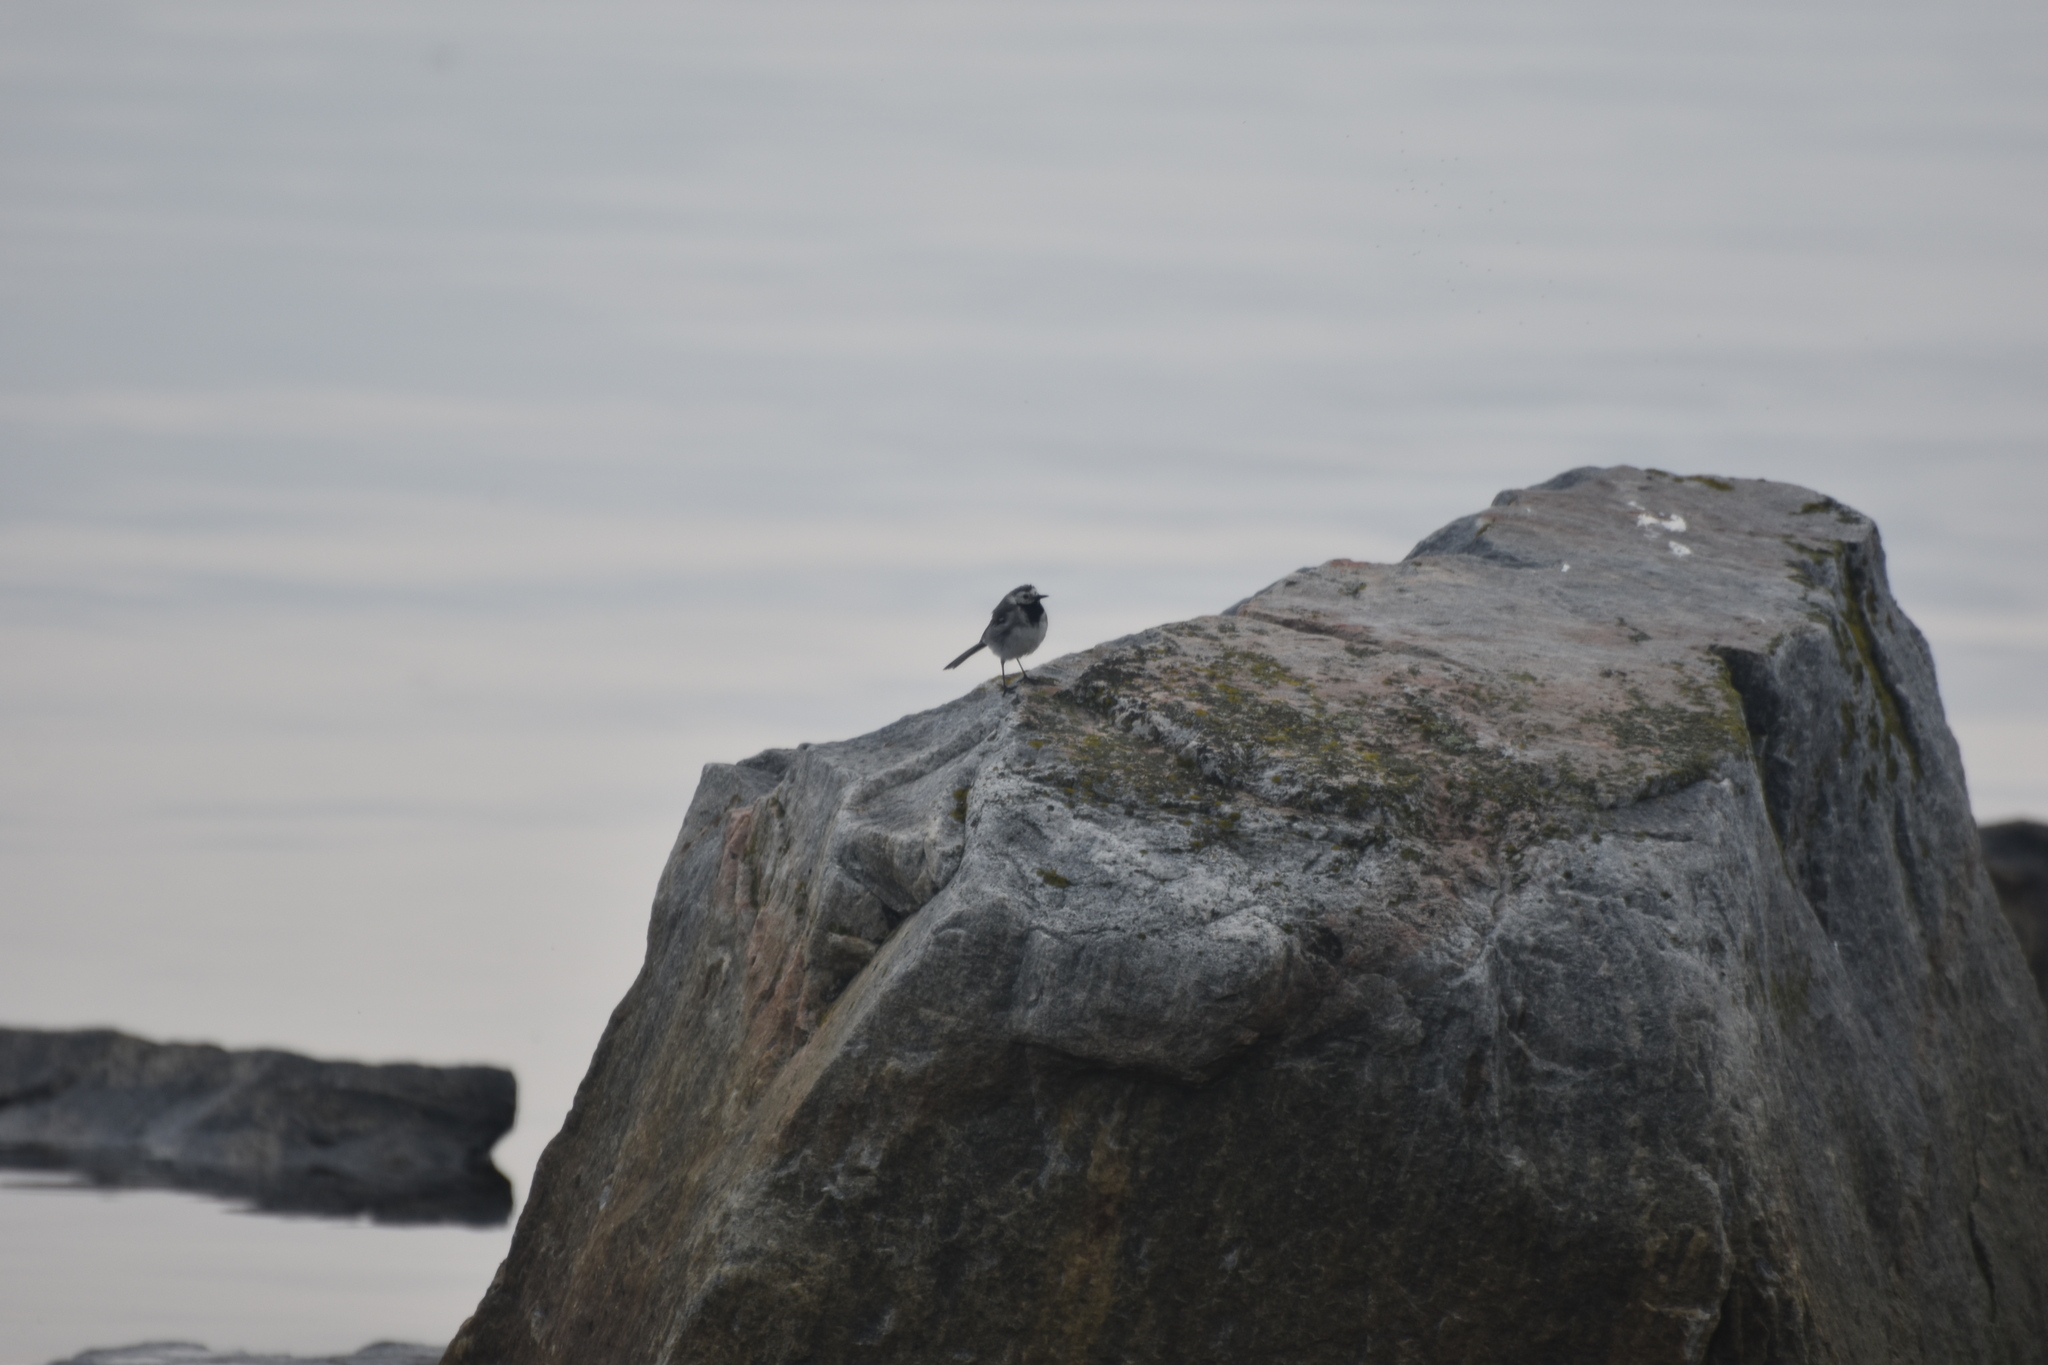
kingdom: Animalia
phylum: Chordata
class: Aves
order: Passeriformes
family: Motacillidae
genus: Motacilla
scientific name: Motacilla alba
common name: White wagtail
